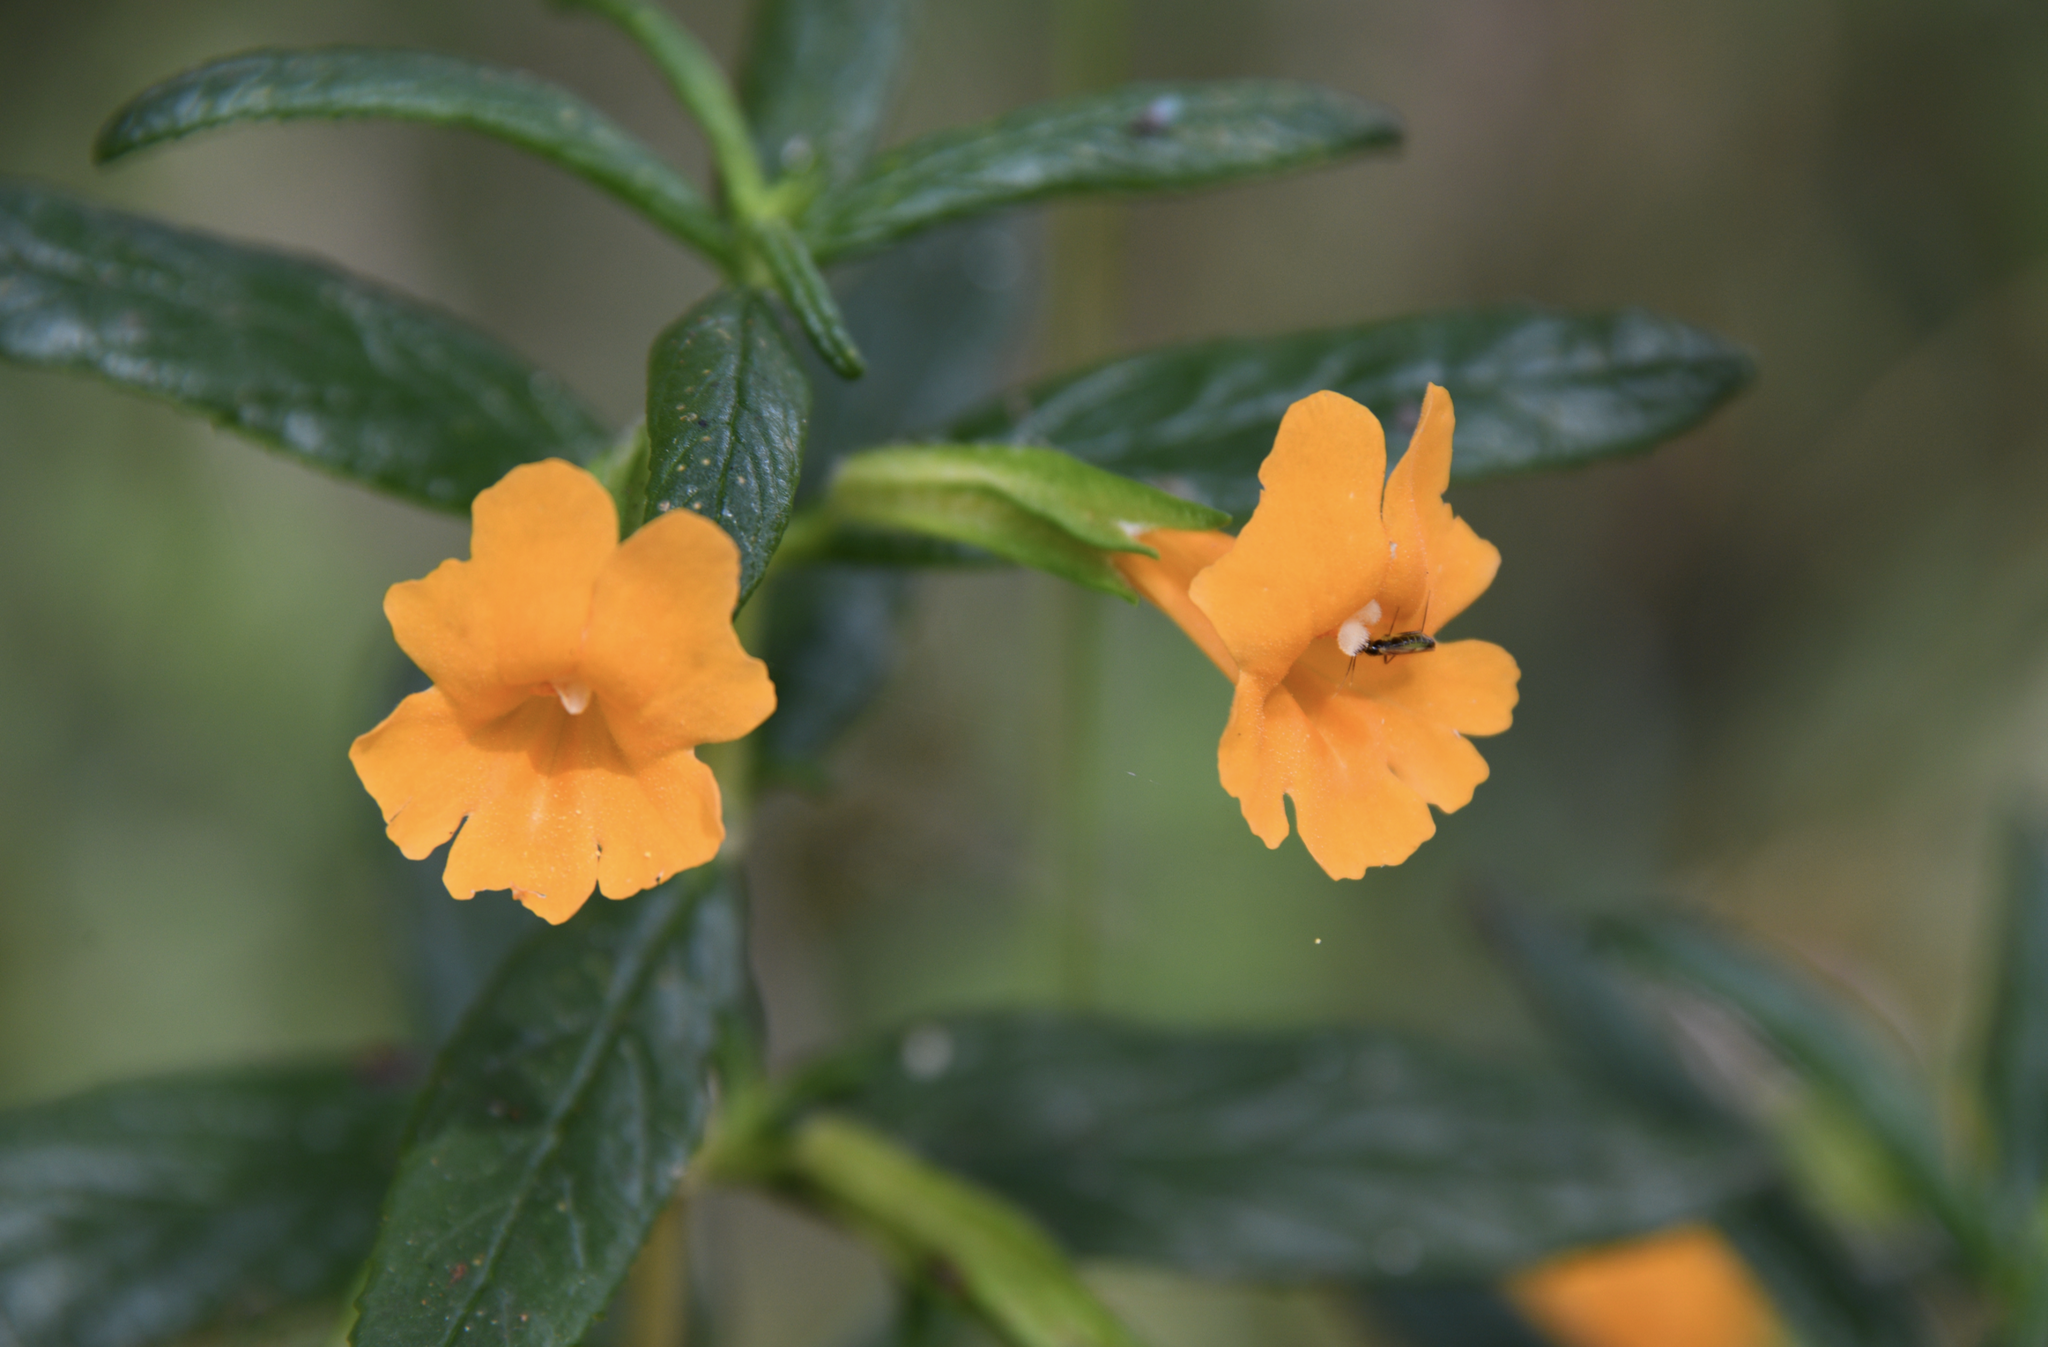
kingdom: Plantae
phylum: Tracheophyta
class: Magnoliopsida
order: Lamiales
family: Phrymaceae
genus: Diplacus
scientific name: Diplacus aurantiacus
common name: Bush monkey-flower
